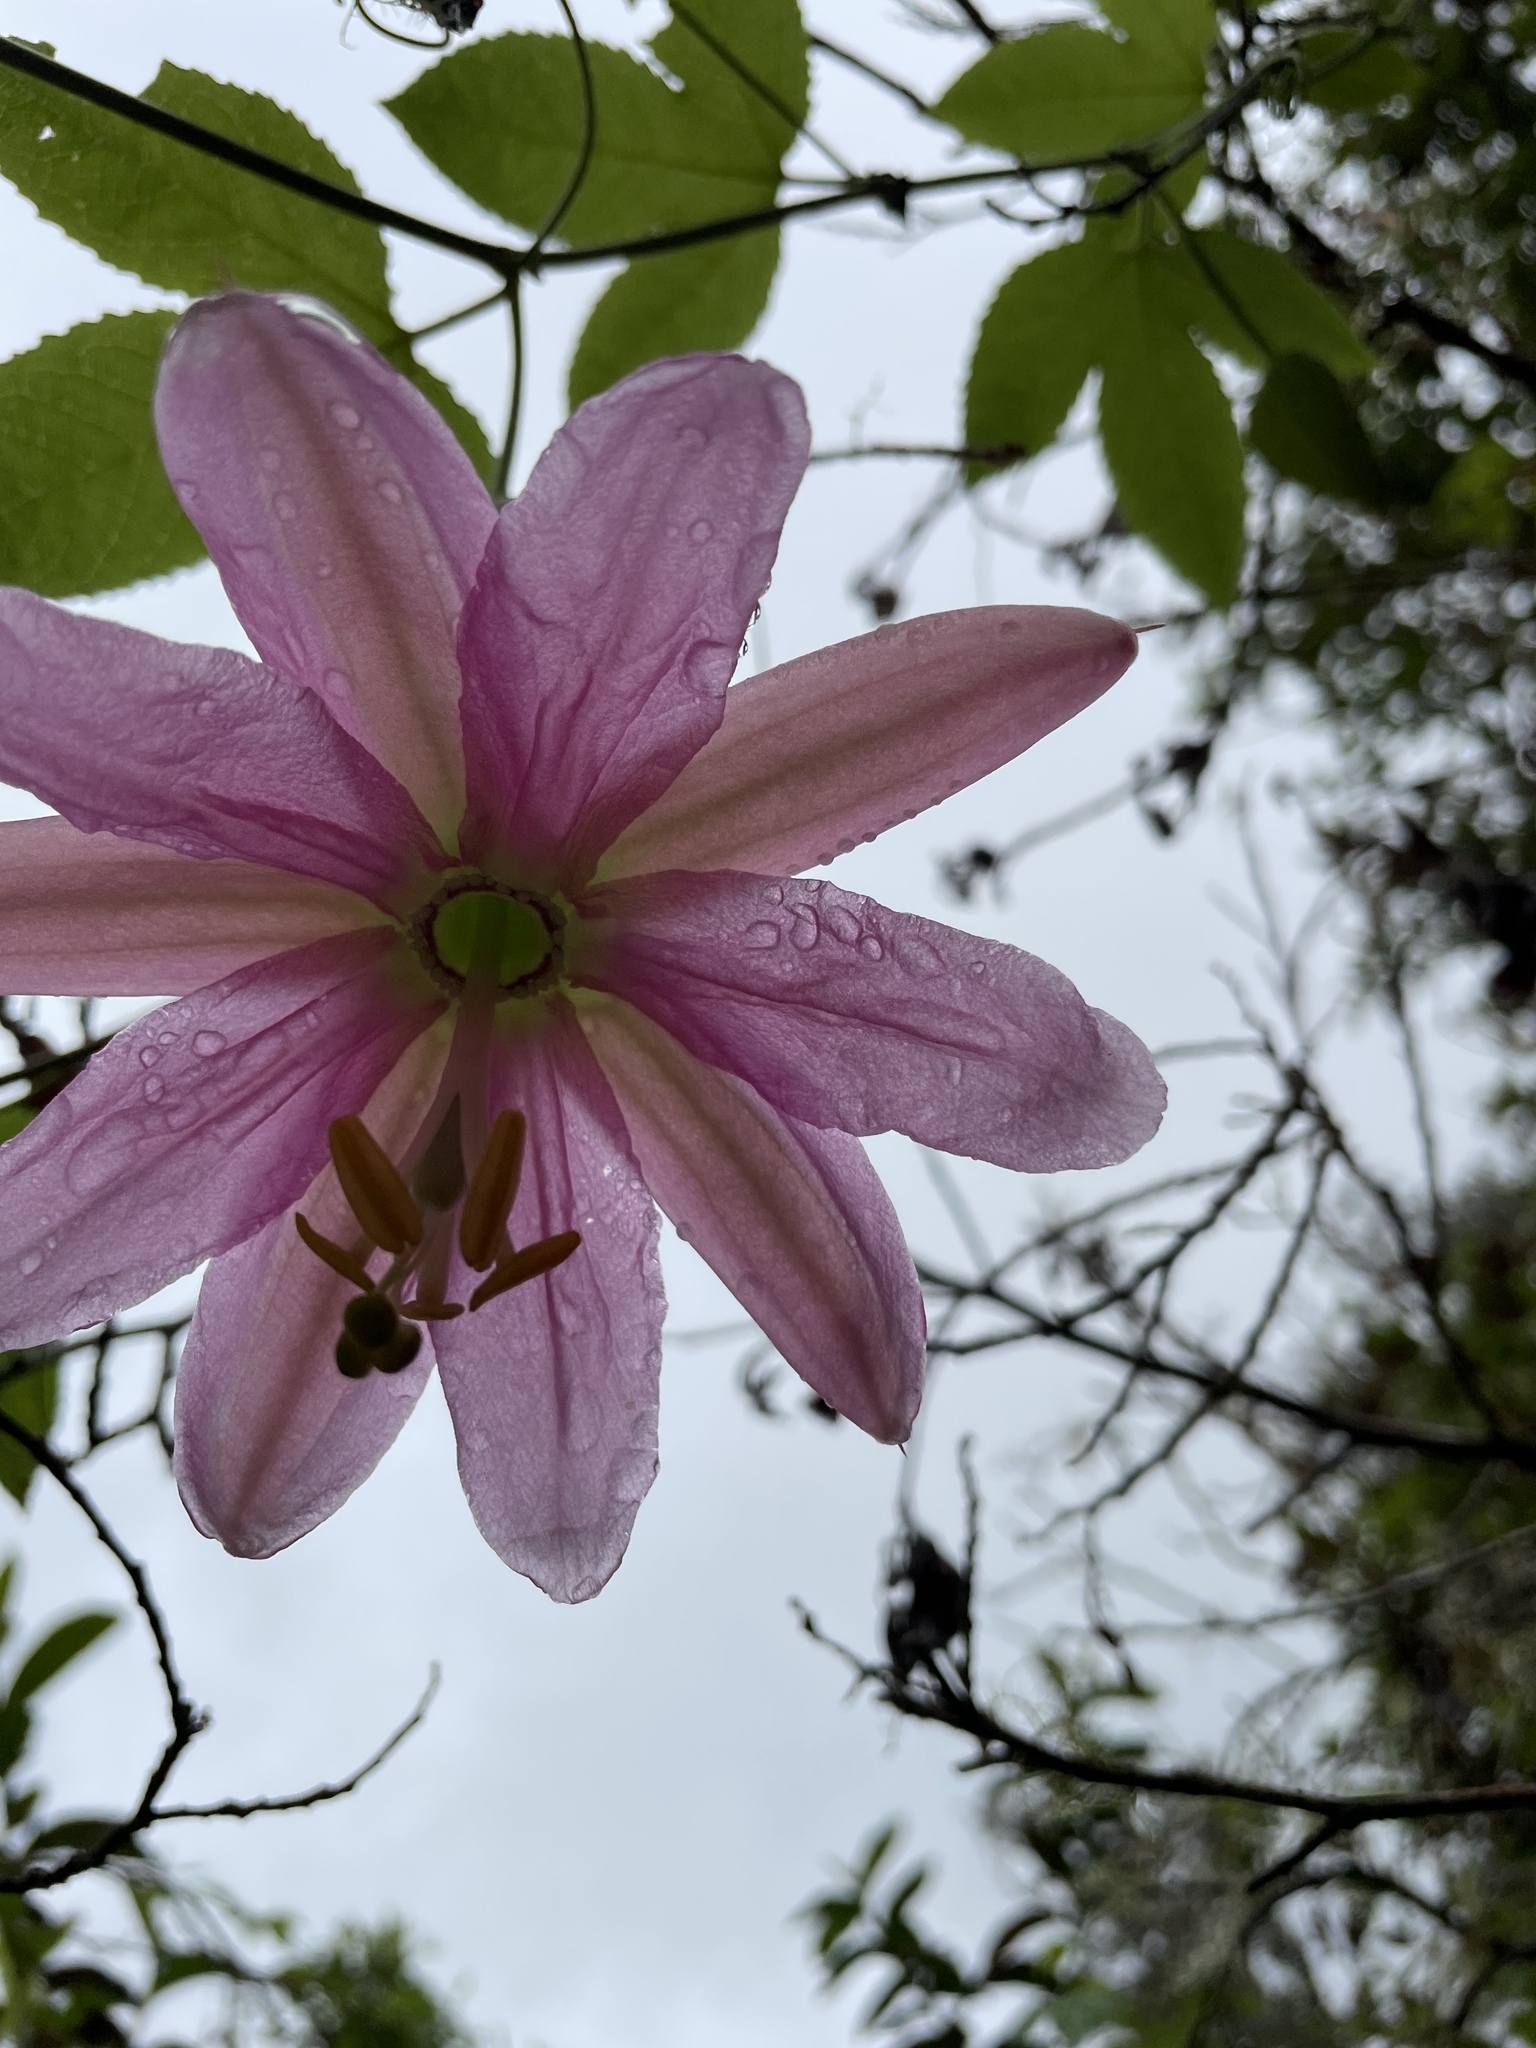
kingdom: Plantae
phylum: Tracheophyta
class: Magnoliopsida
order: Malpighiales
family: Passifloraceae
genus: Passiflora
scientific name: Passiflora tarminiana
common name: Banana poka
